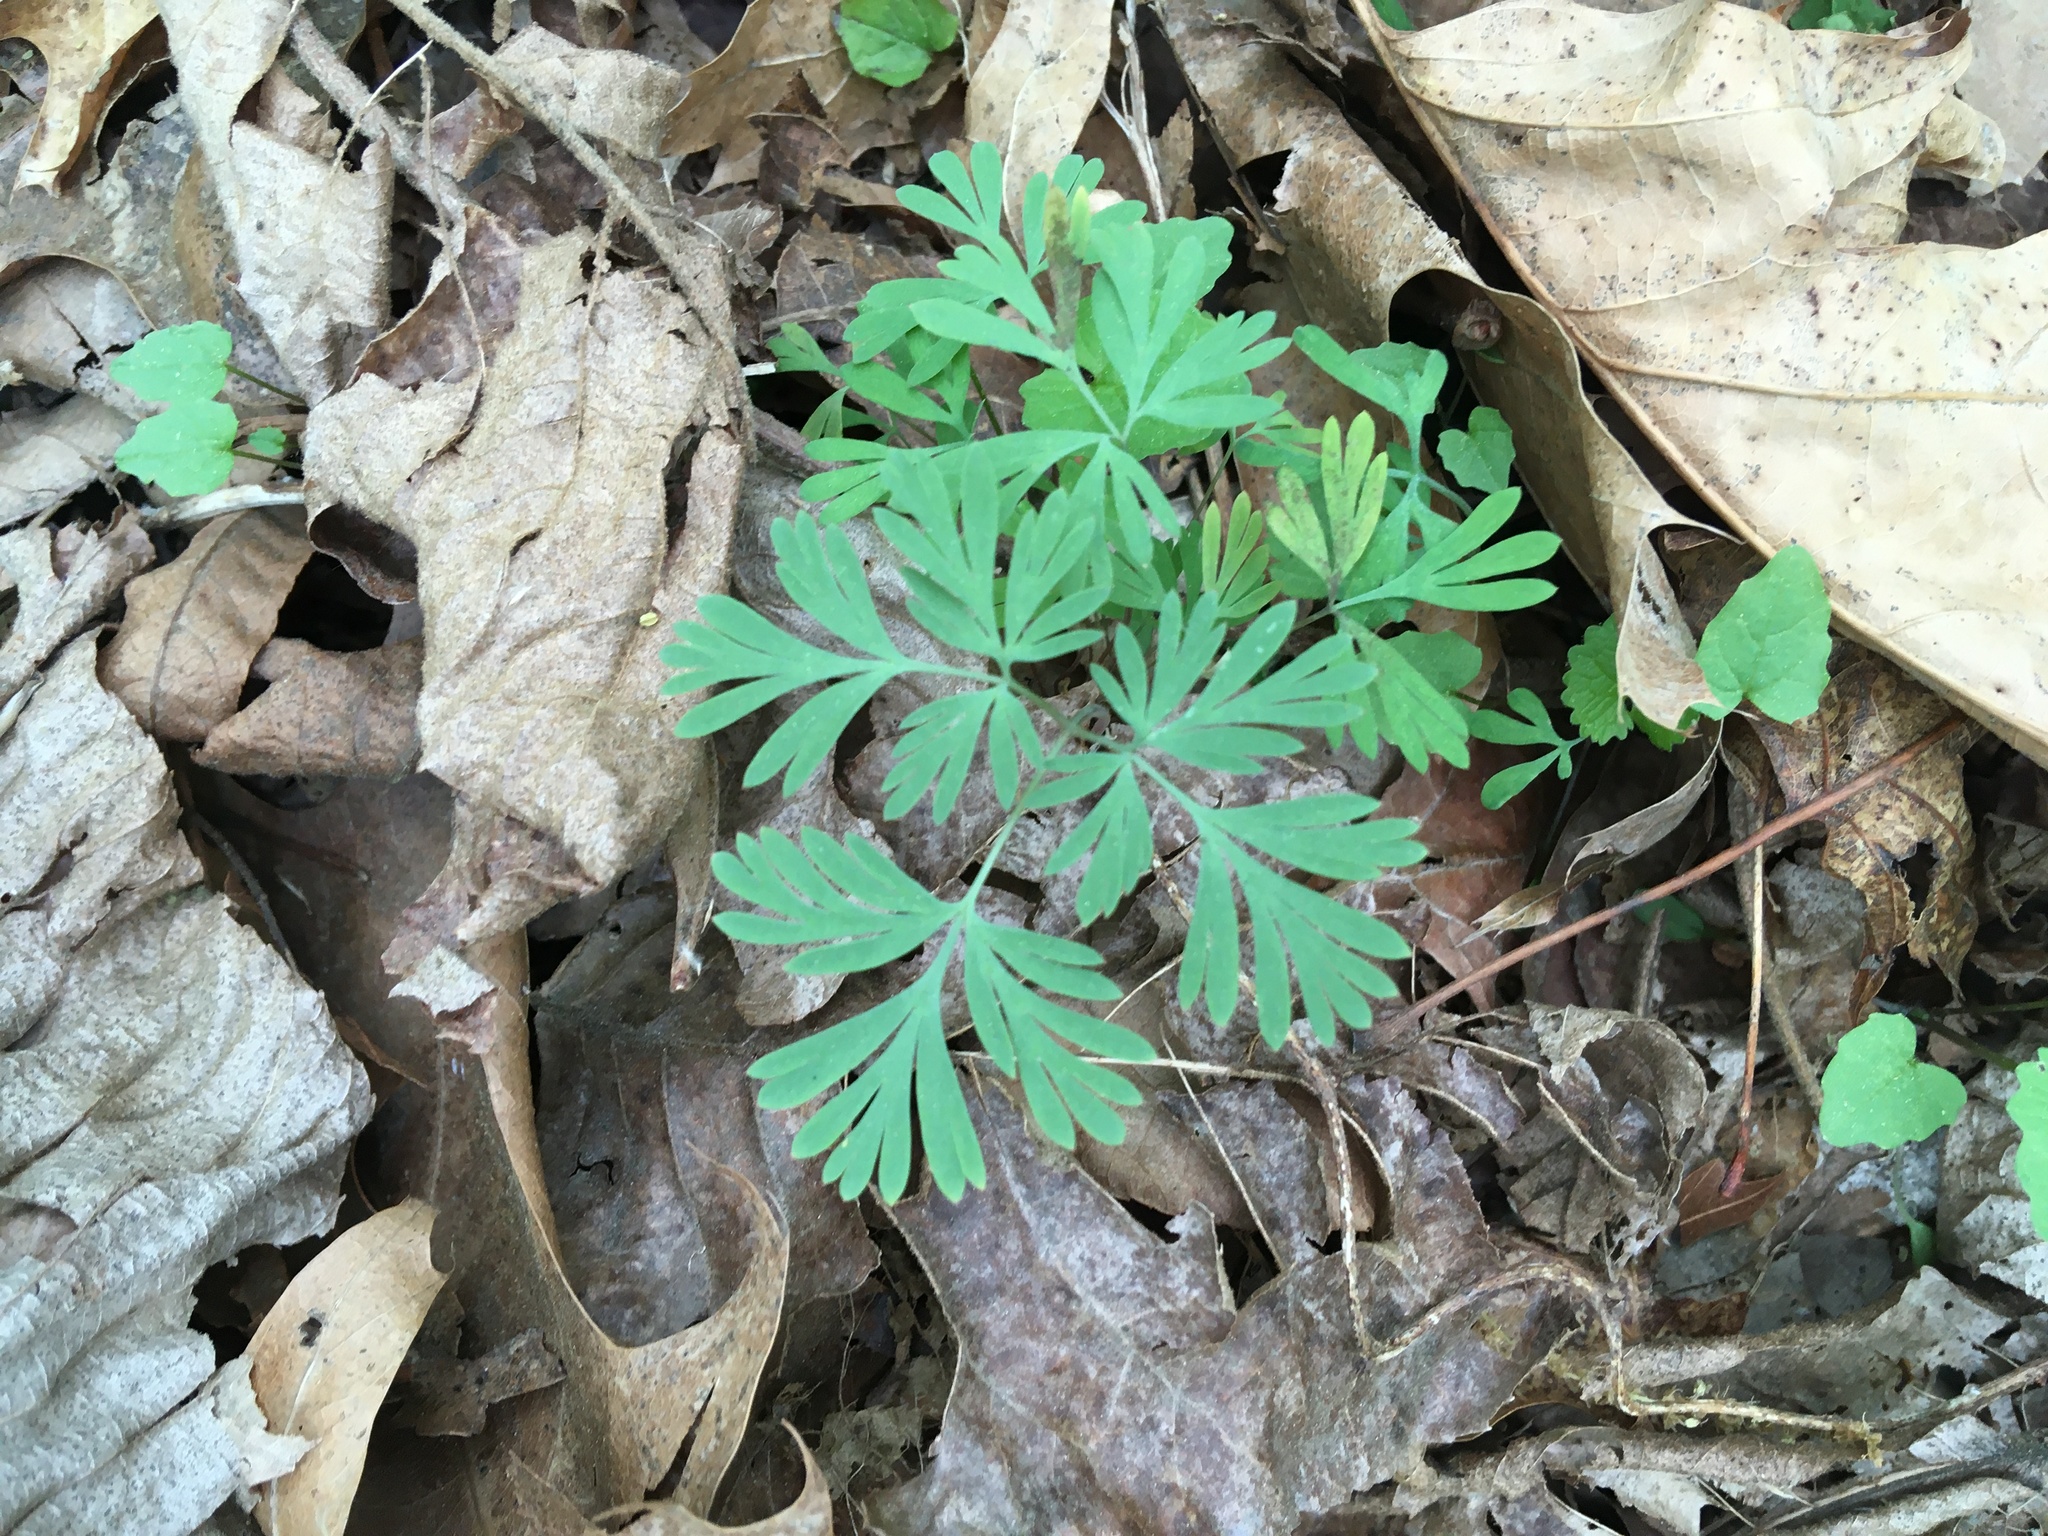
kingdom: Plantae
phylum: Tracheophyta
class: Magnoliopsida
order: Ranunculales
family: Papaveraceae
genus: Dicentra
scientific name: Dicentra cucullaria
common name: Dutchman's breeches
